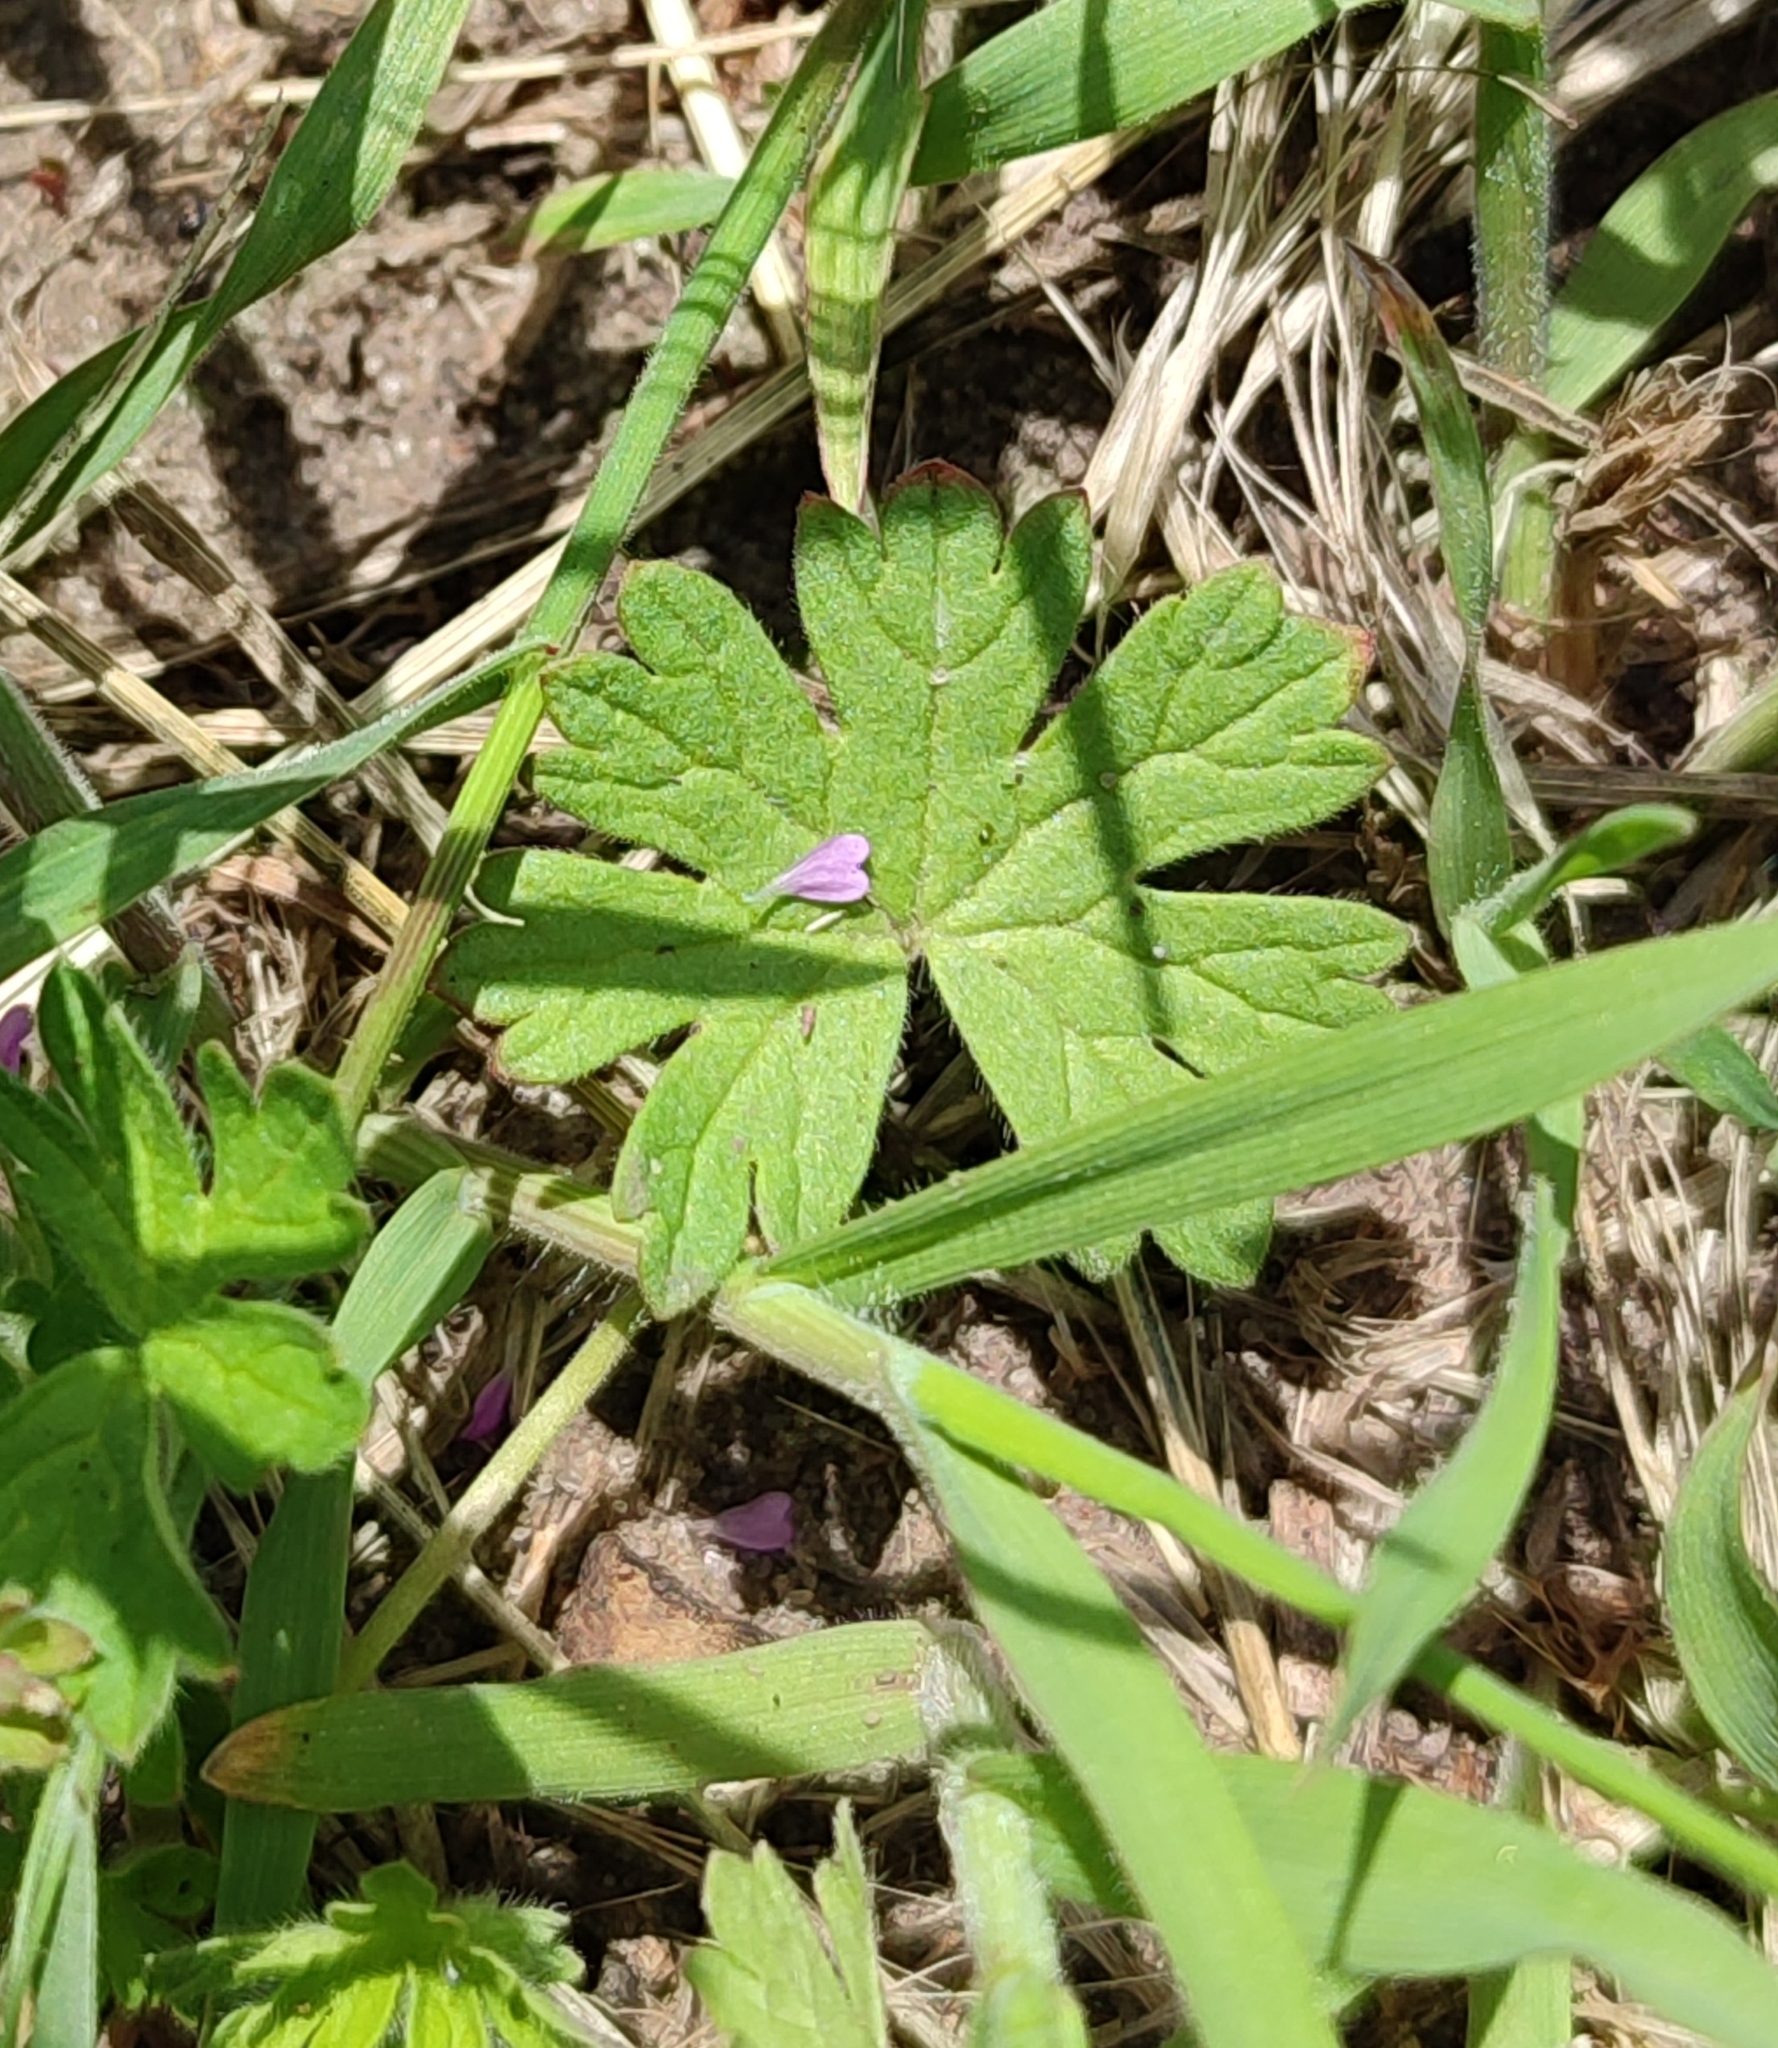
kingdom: Plantae
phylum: Tracheophyta
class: Magnoliopsida
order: Geraniales
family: Geraniaceae
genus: Geranium
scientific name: Geranium pusillum
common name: Small geranium
